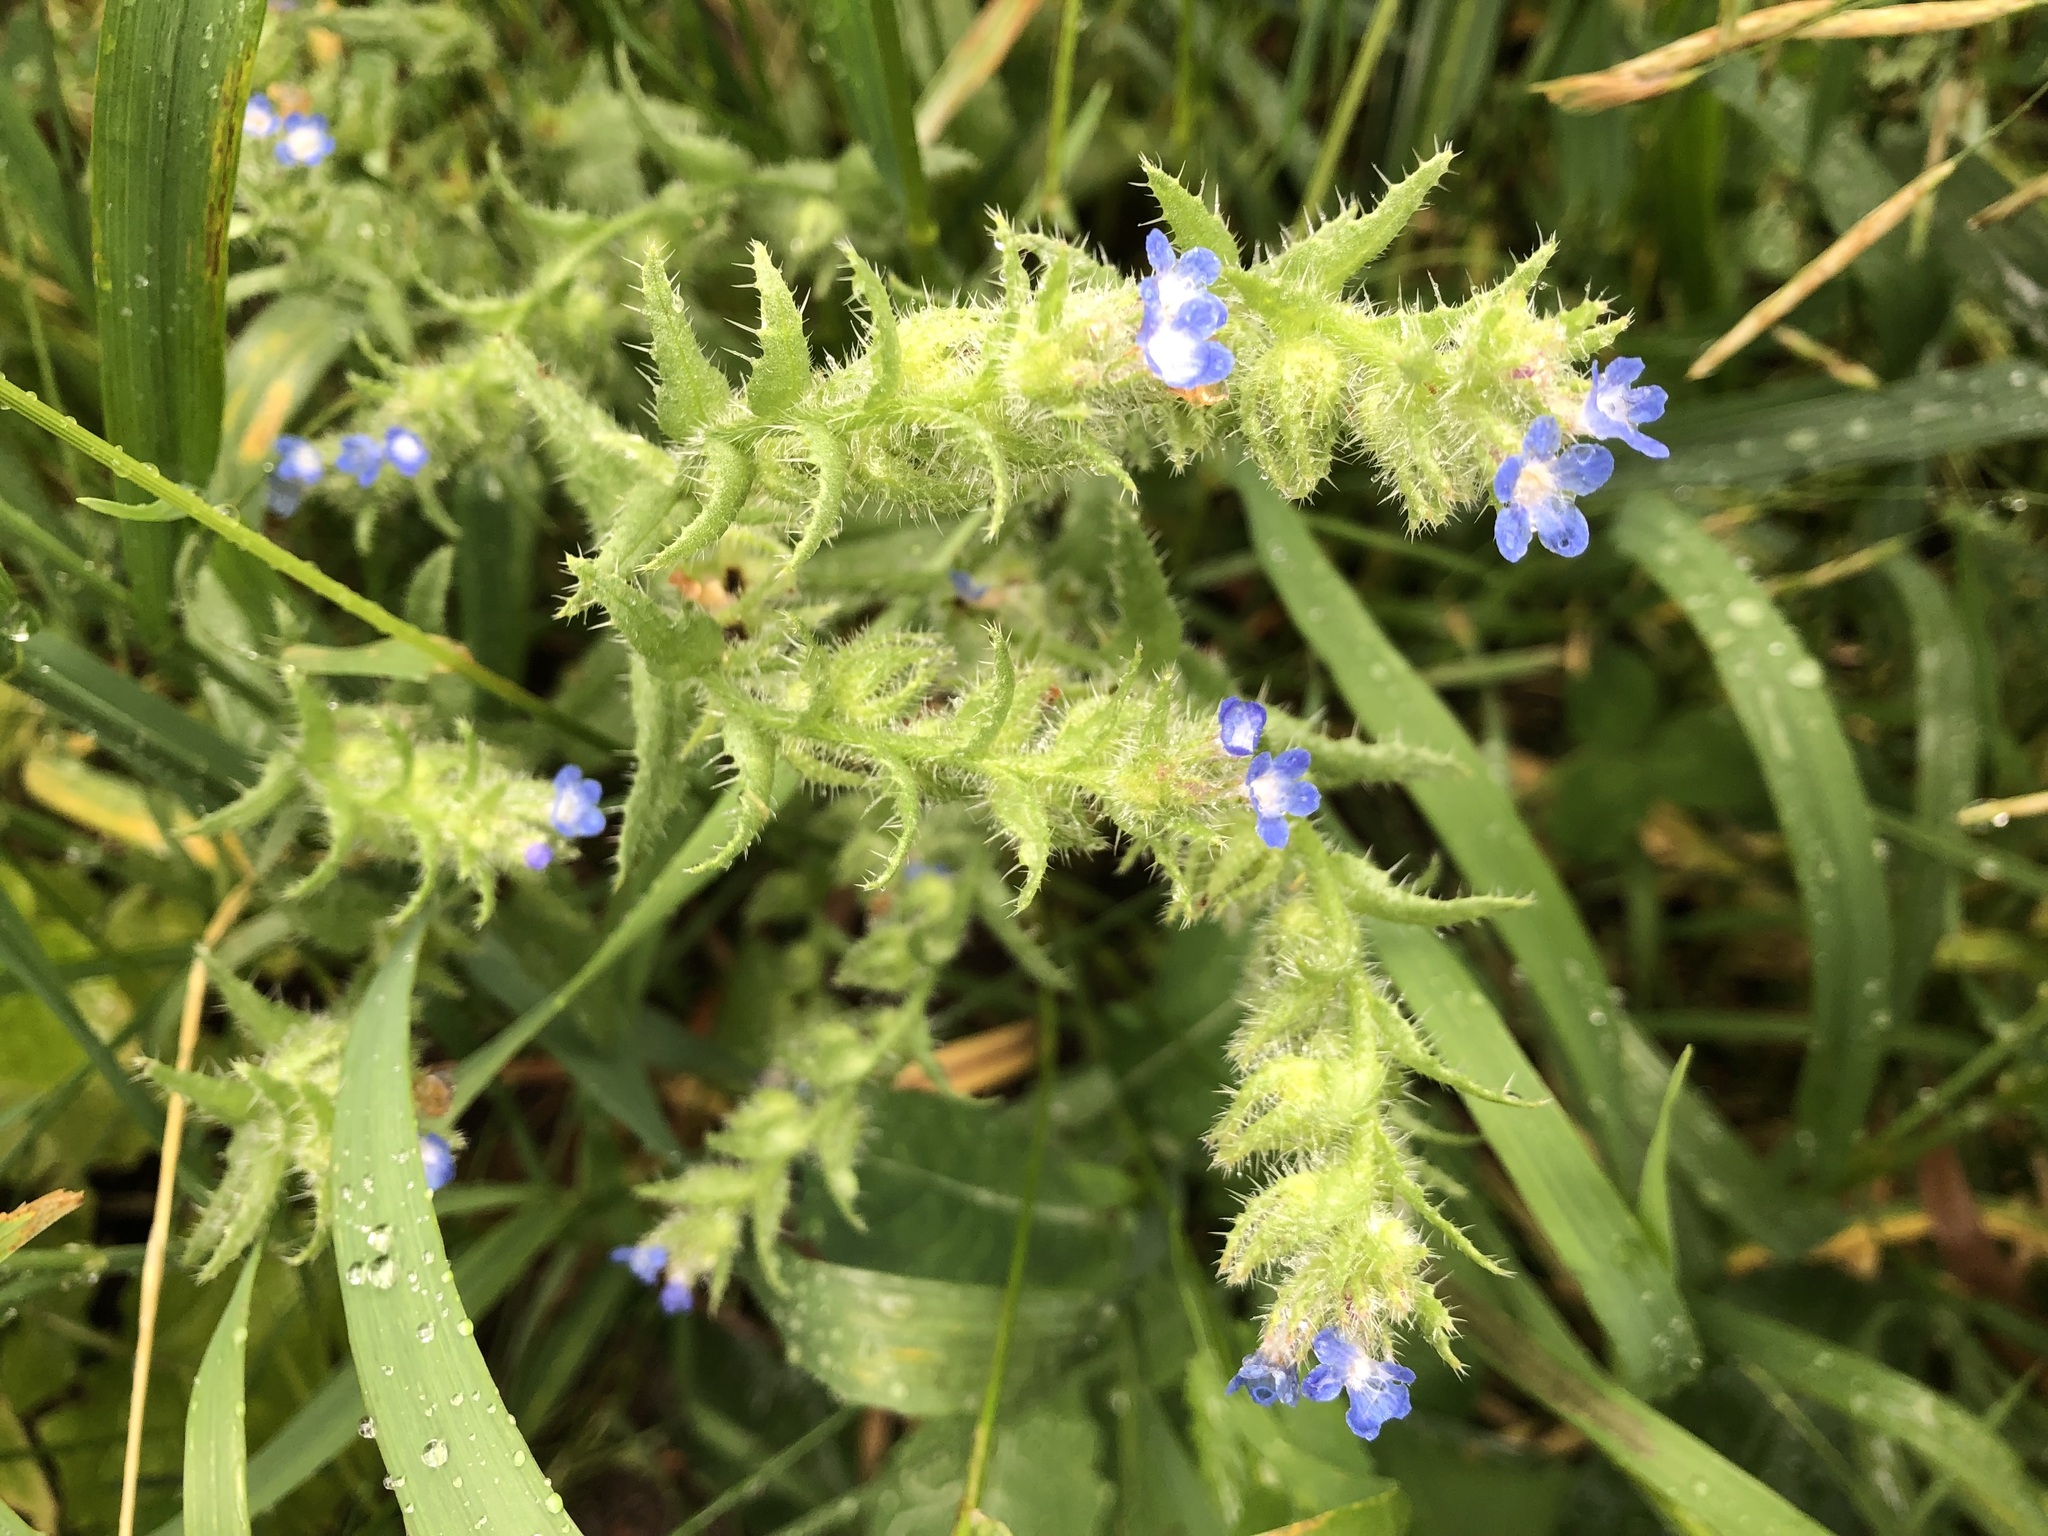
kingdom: Plantae
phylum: Tracheophyta
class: Magnoliopsida
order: Boraginales
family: Boraginaceae
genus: Lycopsis
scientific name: Lycopsis arvensis
